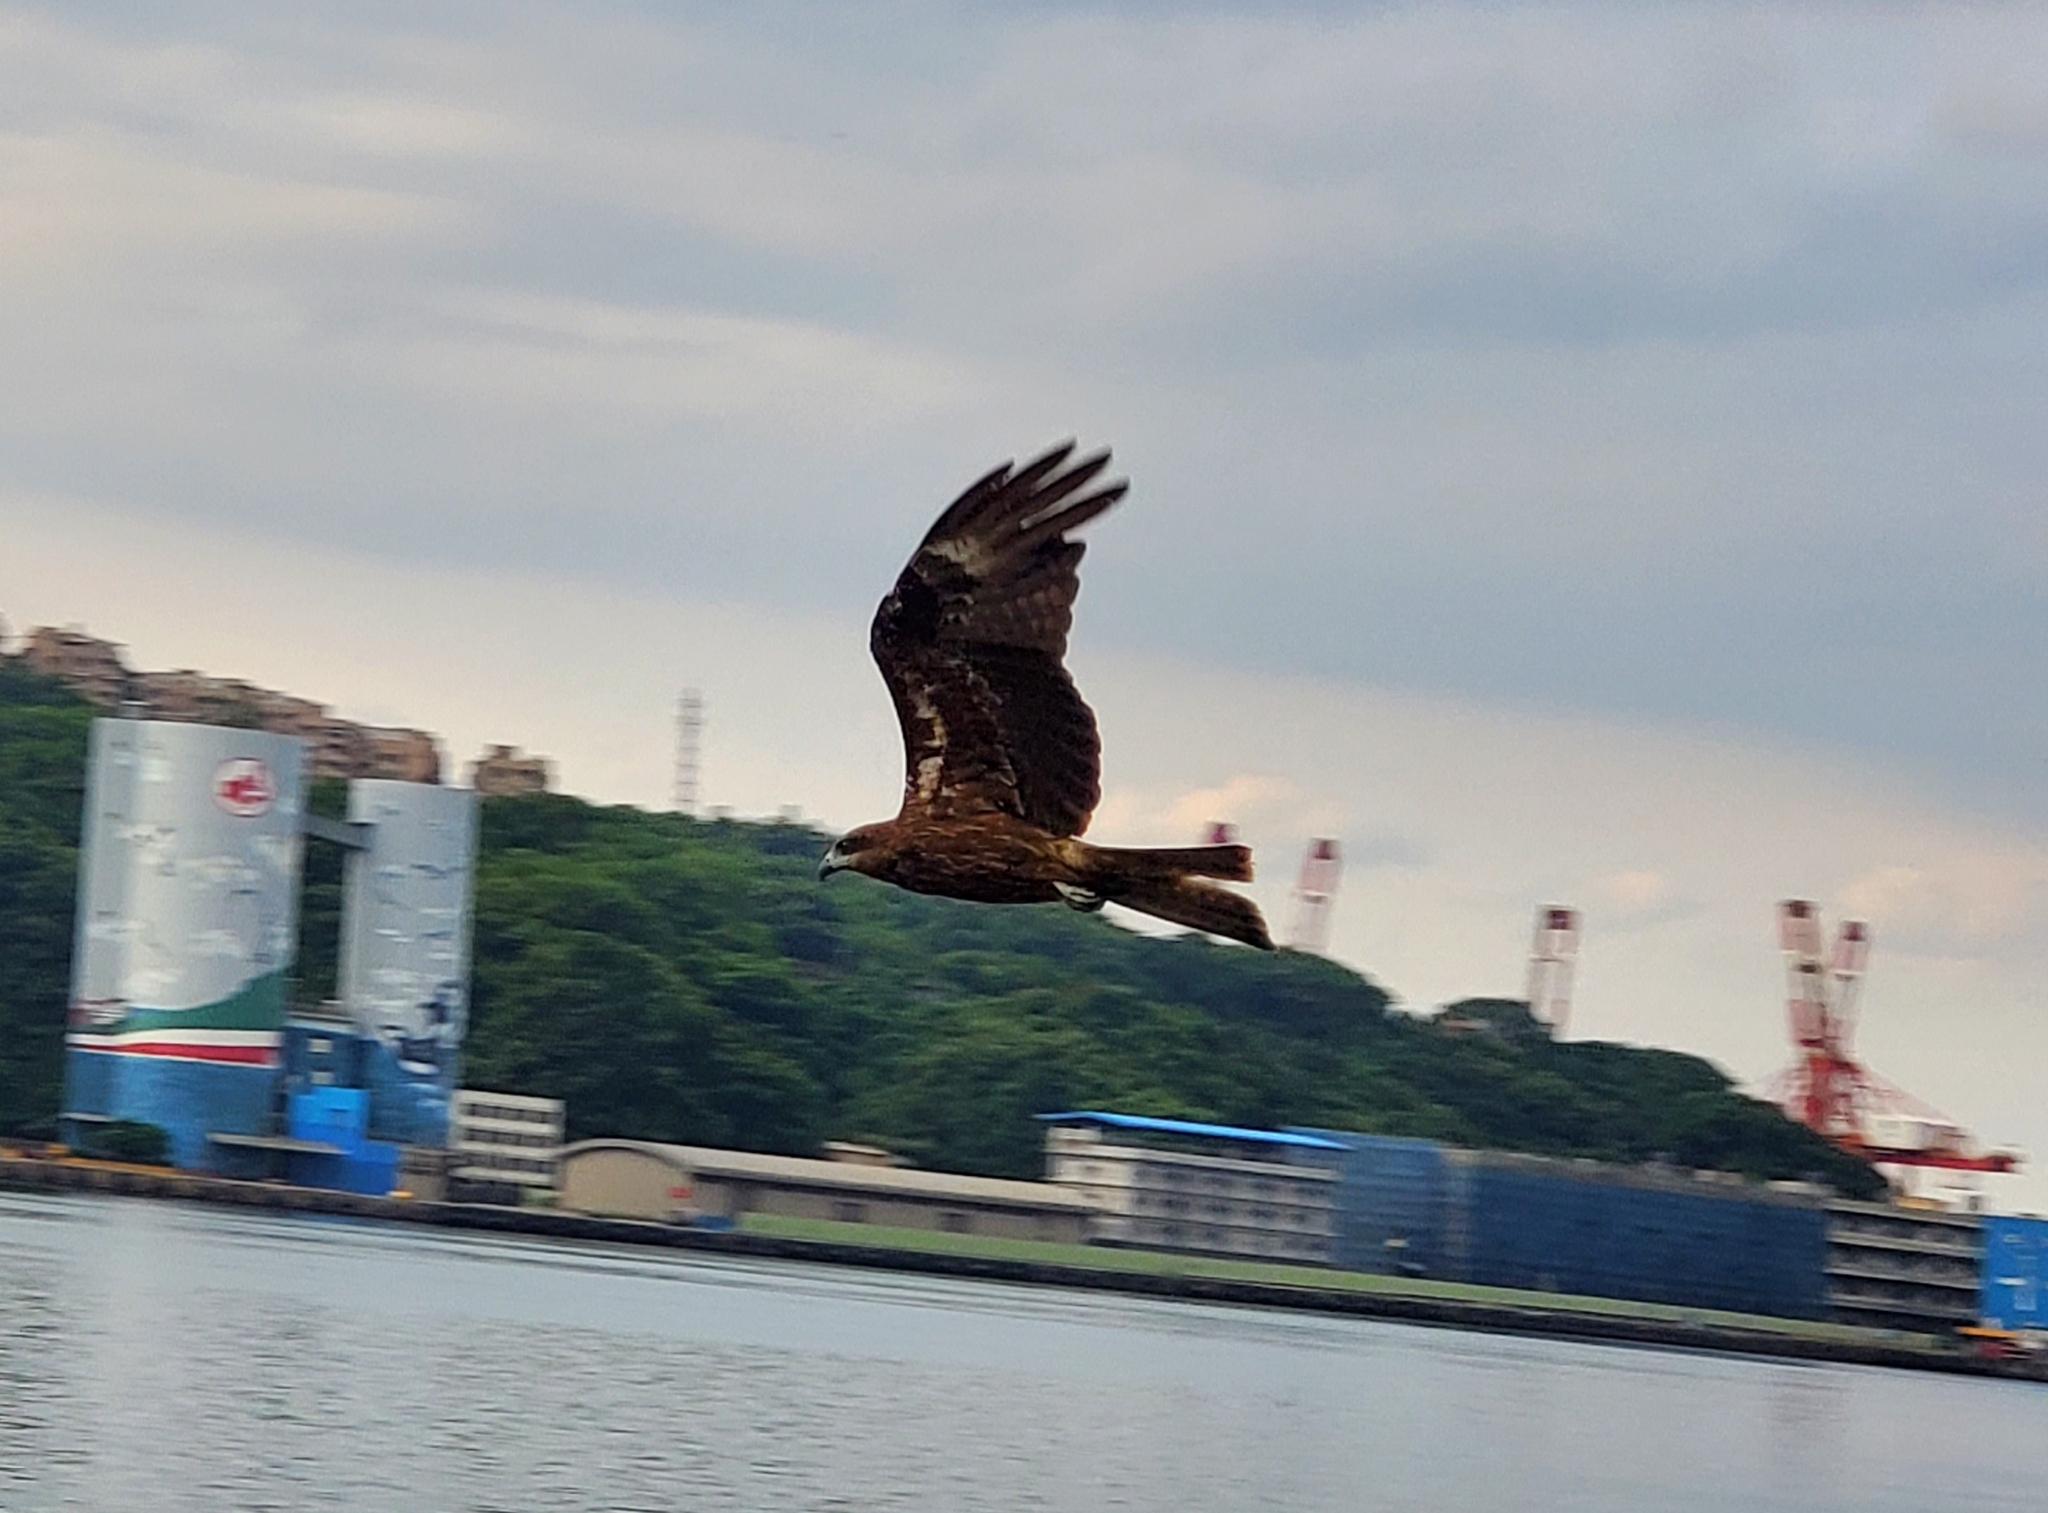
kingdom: Animalia
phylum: Chordata
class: Aves
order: Accipitriformes
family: Accipitridae
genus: Milvus
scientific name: Milvus migrans
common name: Black kite
